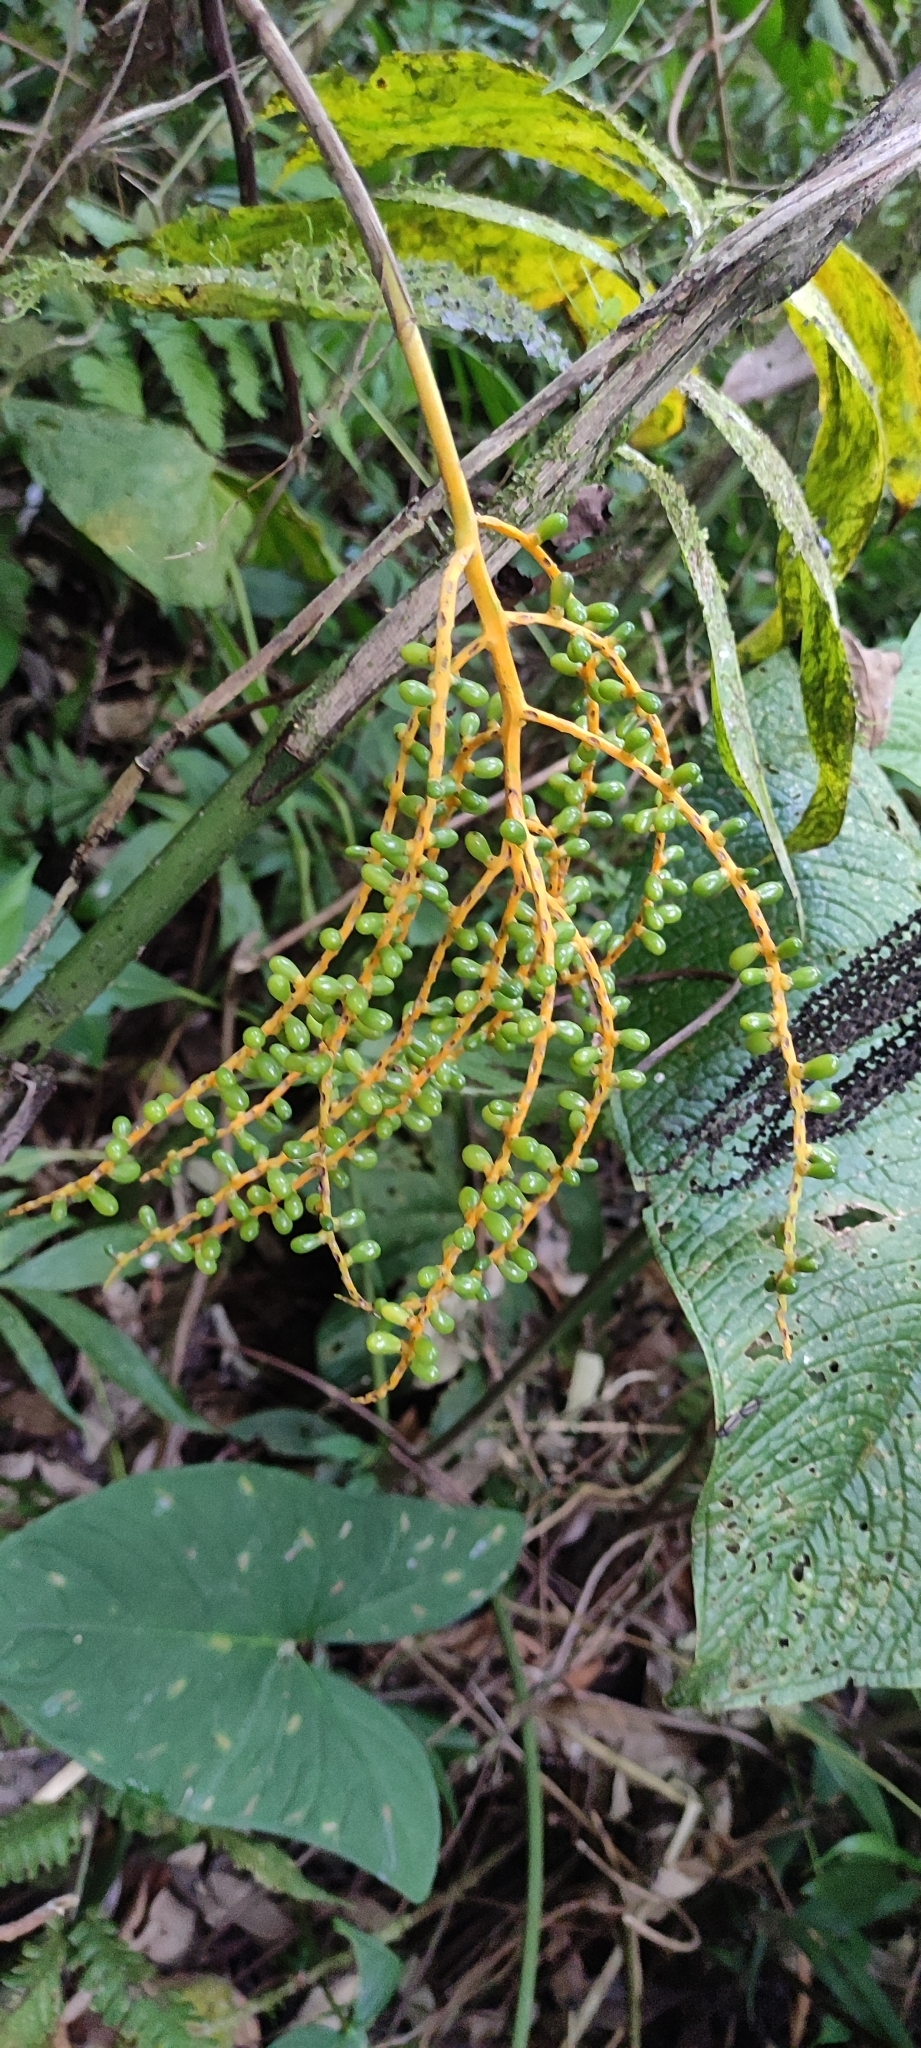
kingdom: Plantae
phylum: Tracheophyta
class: Liliopsida
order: Arecales
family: Arecaceae
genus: Chamaedorea
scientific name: Chamaedorea pinnatifrons
